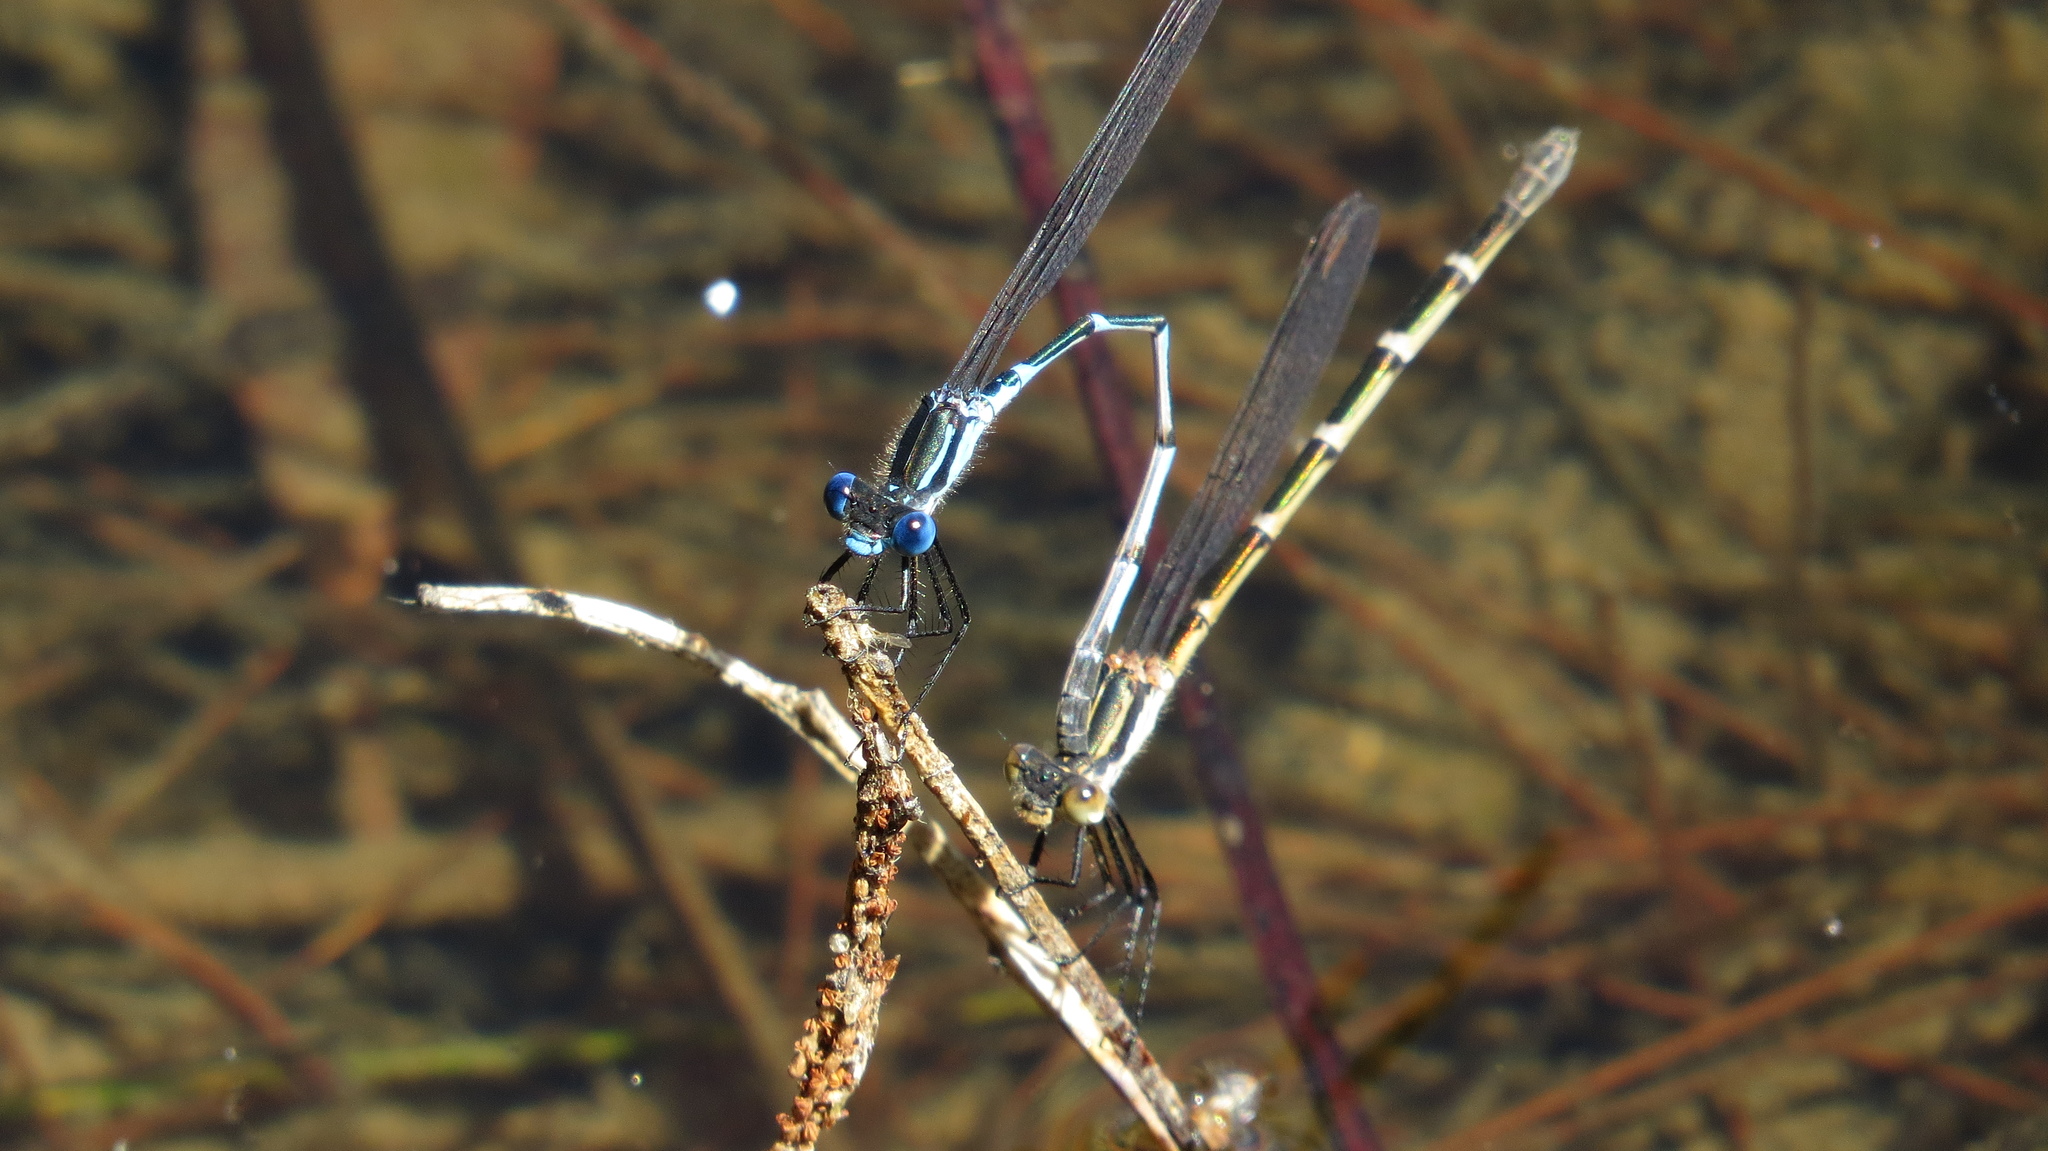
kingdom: Animalia
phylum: Arthropoda
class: Insecta
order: Odonata
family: Lestidae
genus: Austrolestes
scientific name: Austrolestes minjerriba
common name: Dune ringtail
